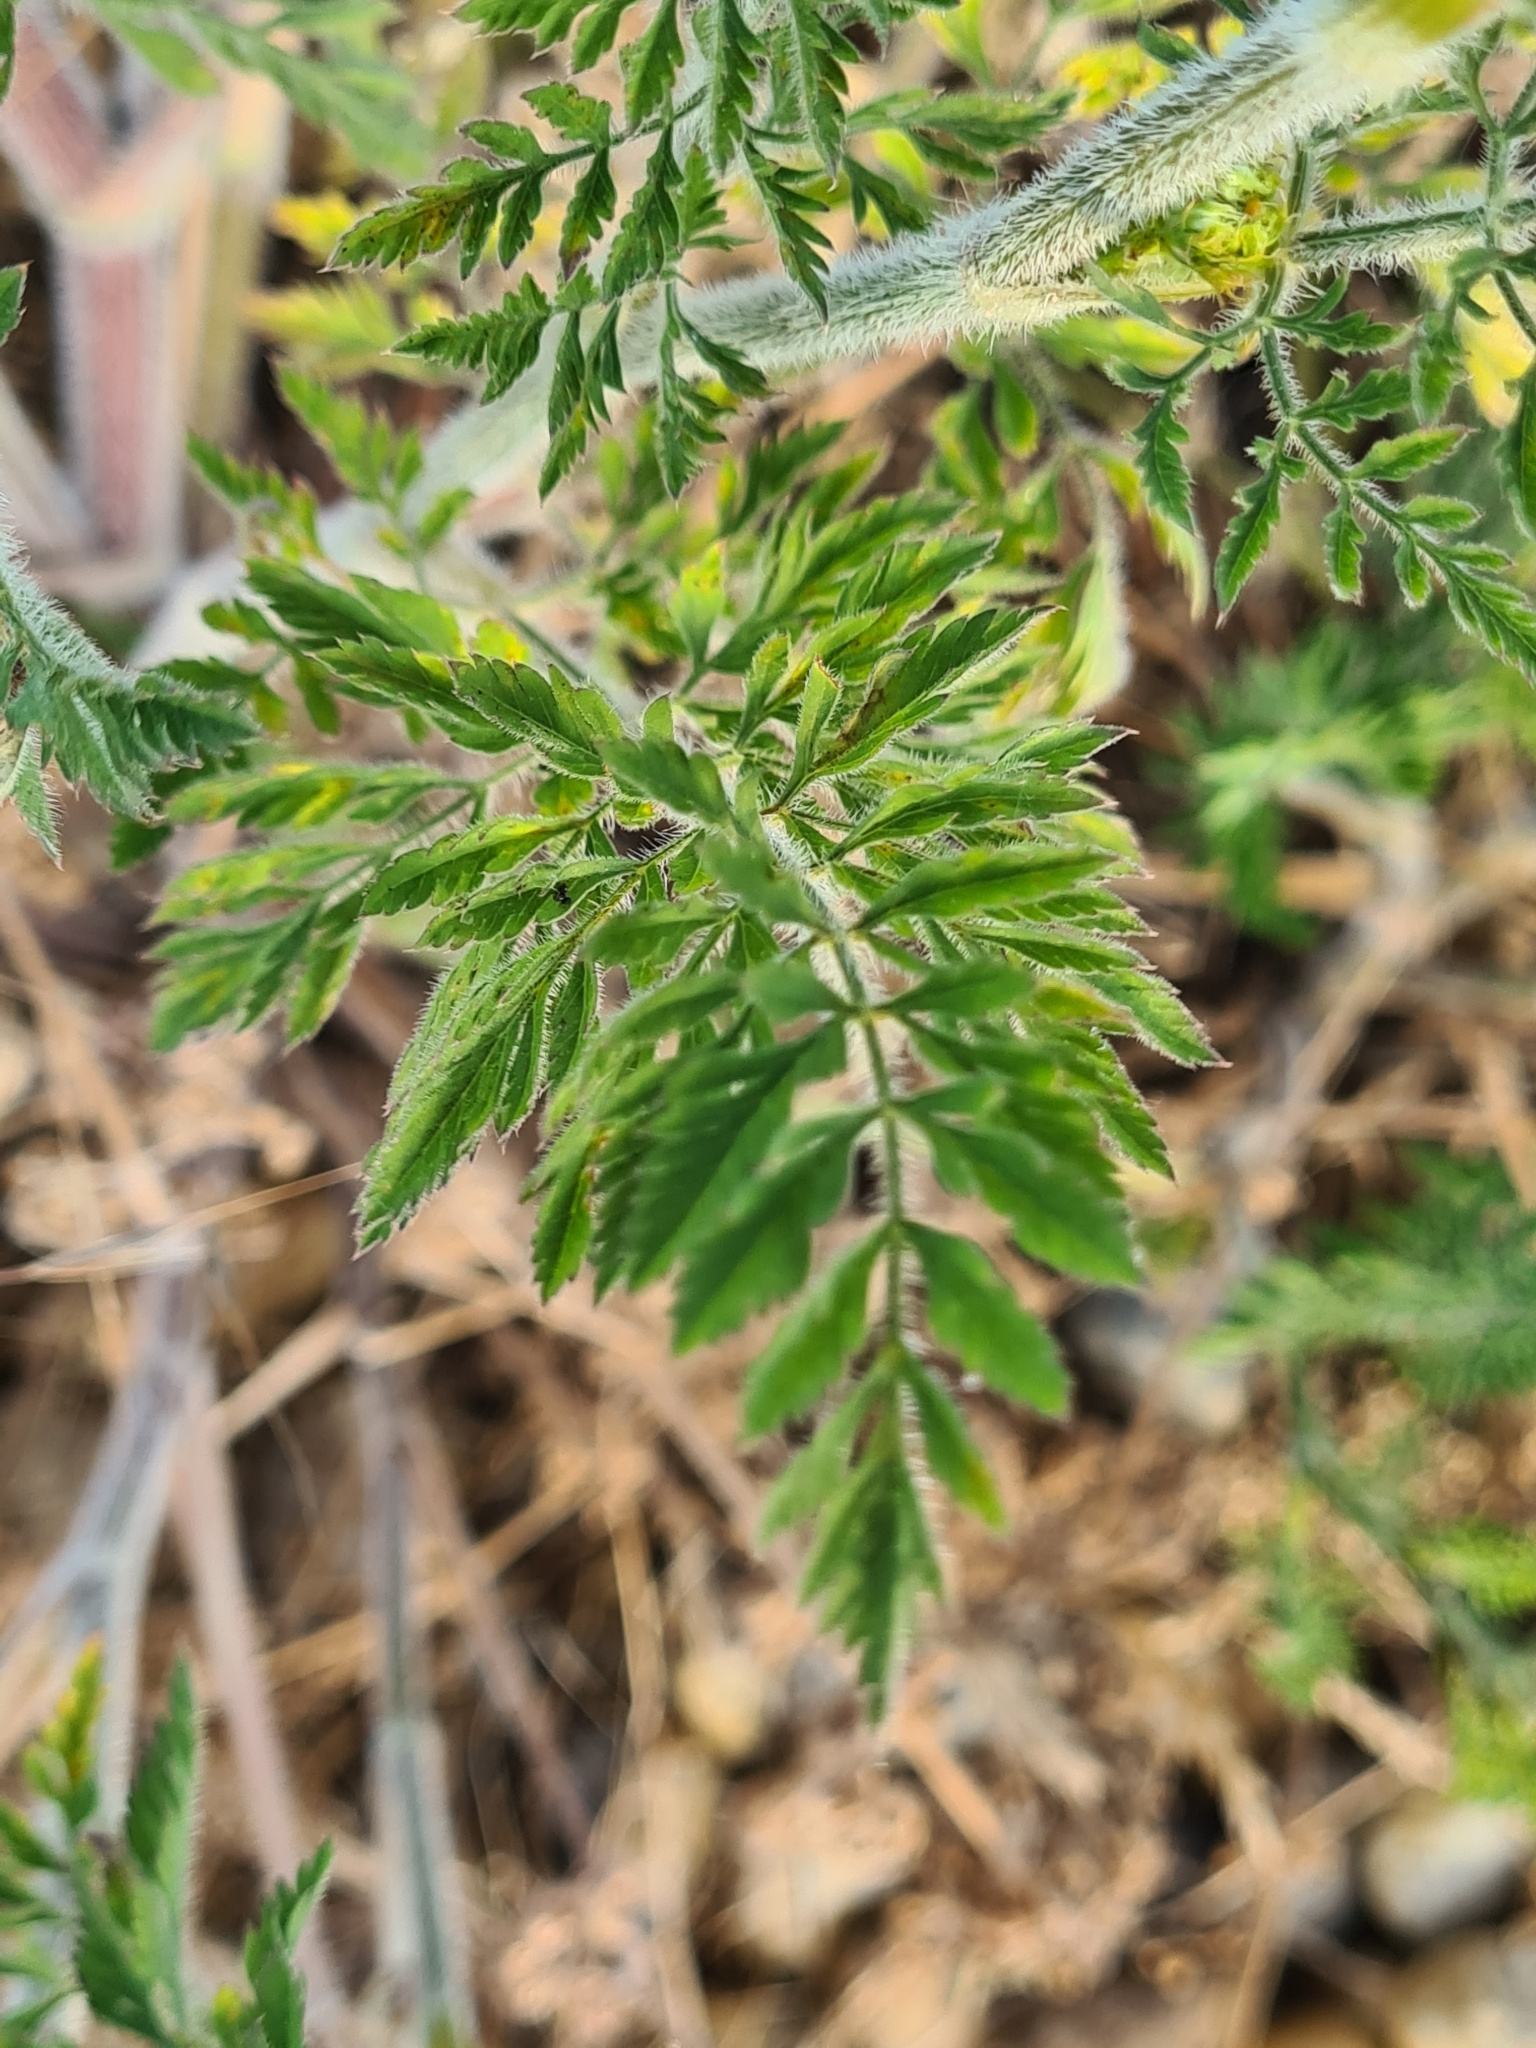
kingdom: Plantae
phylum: Tracheophyta
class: Magnoliopsida
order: Apiales
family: Apiaceae
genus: Daucus
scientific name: Daucus carota
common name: Wild carrot
